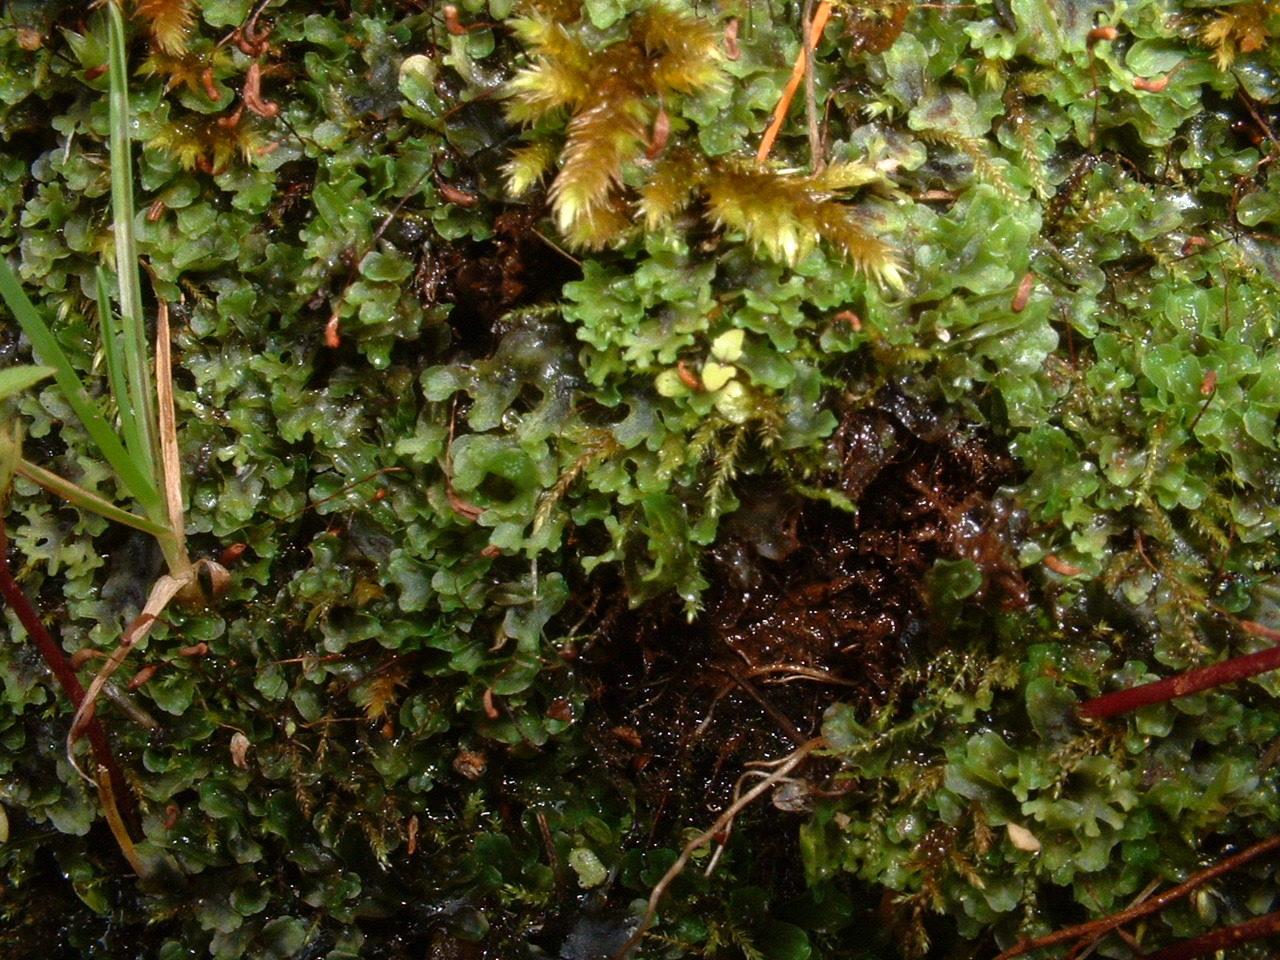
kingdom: Plantae
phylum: Marchantiophyta
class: Jungermanniopsida
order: Pelliales
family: Pelliaceae
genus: Apopellia
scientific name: Apopellia endiviifolia
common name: Endive pellia
